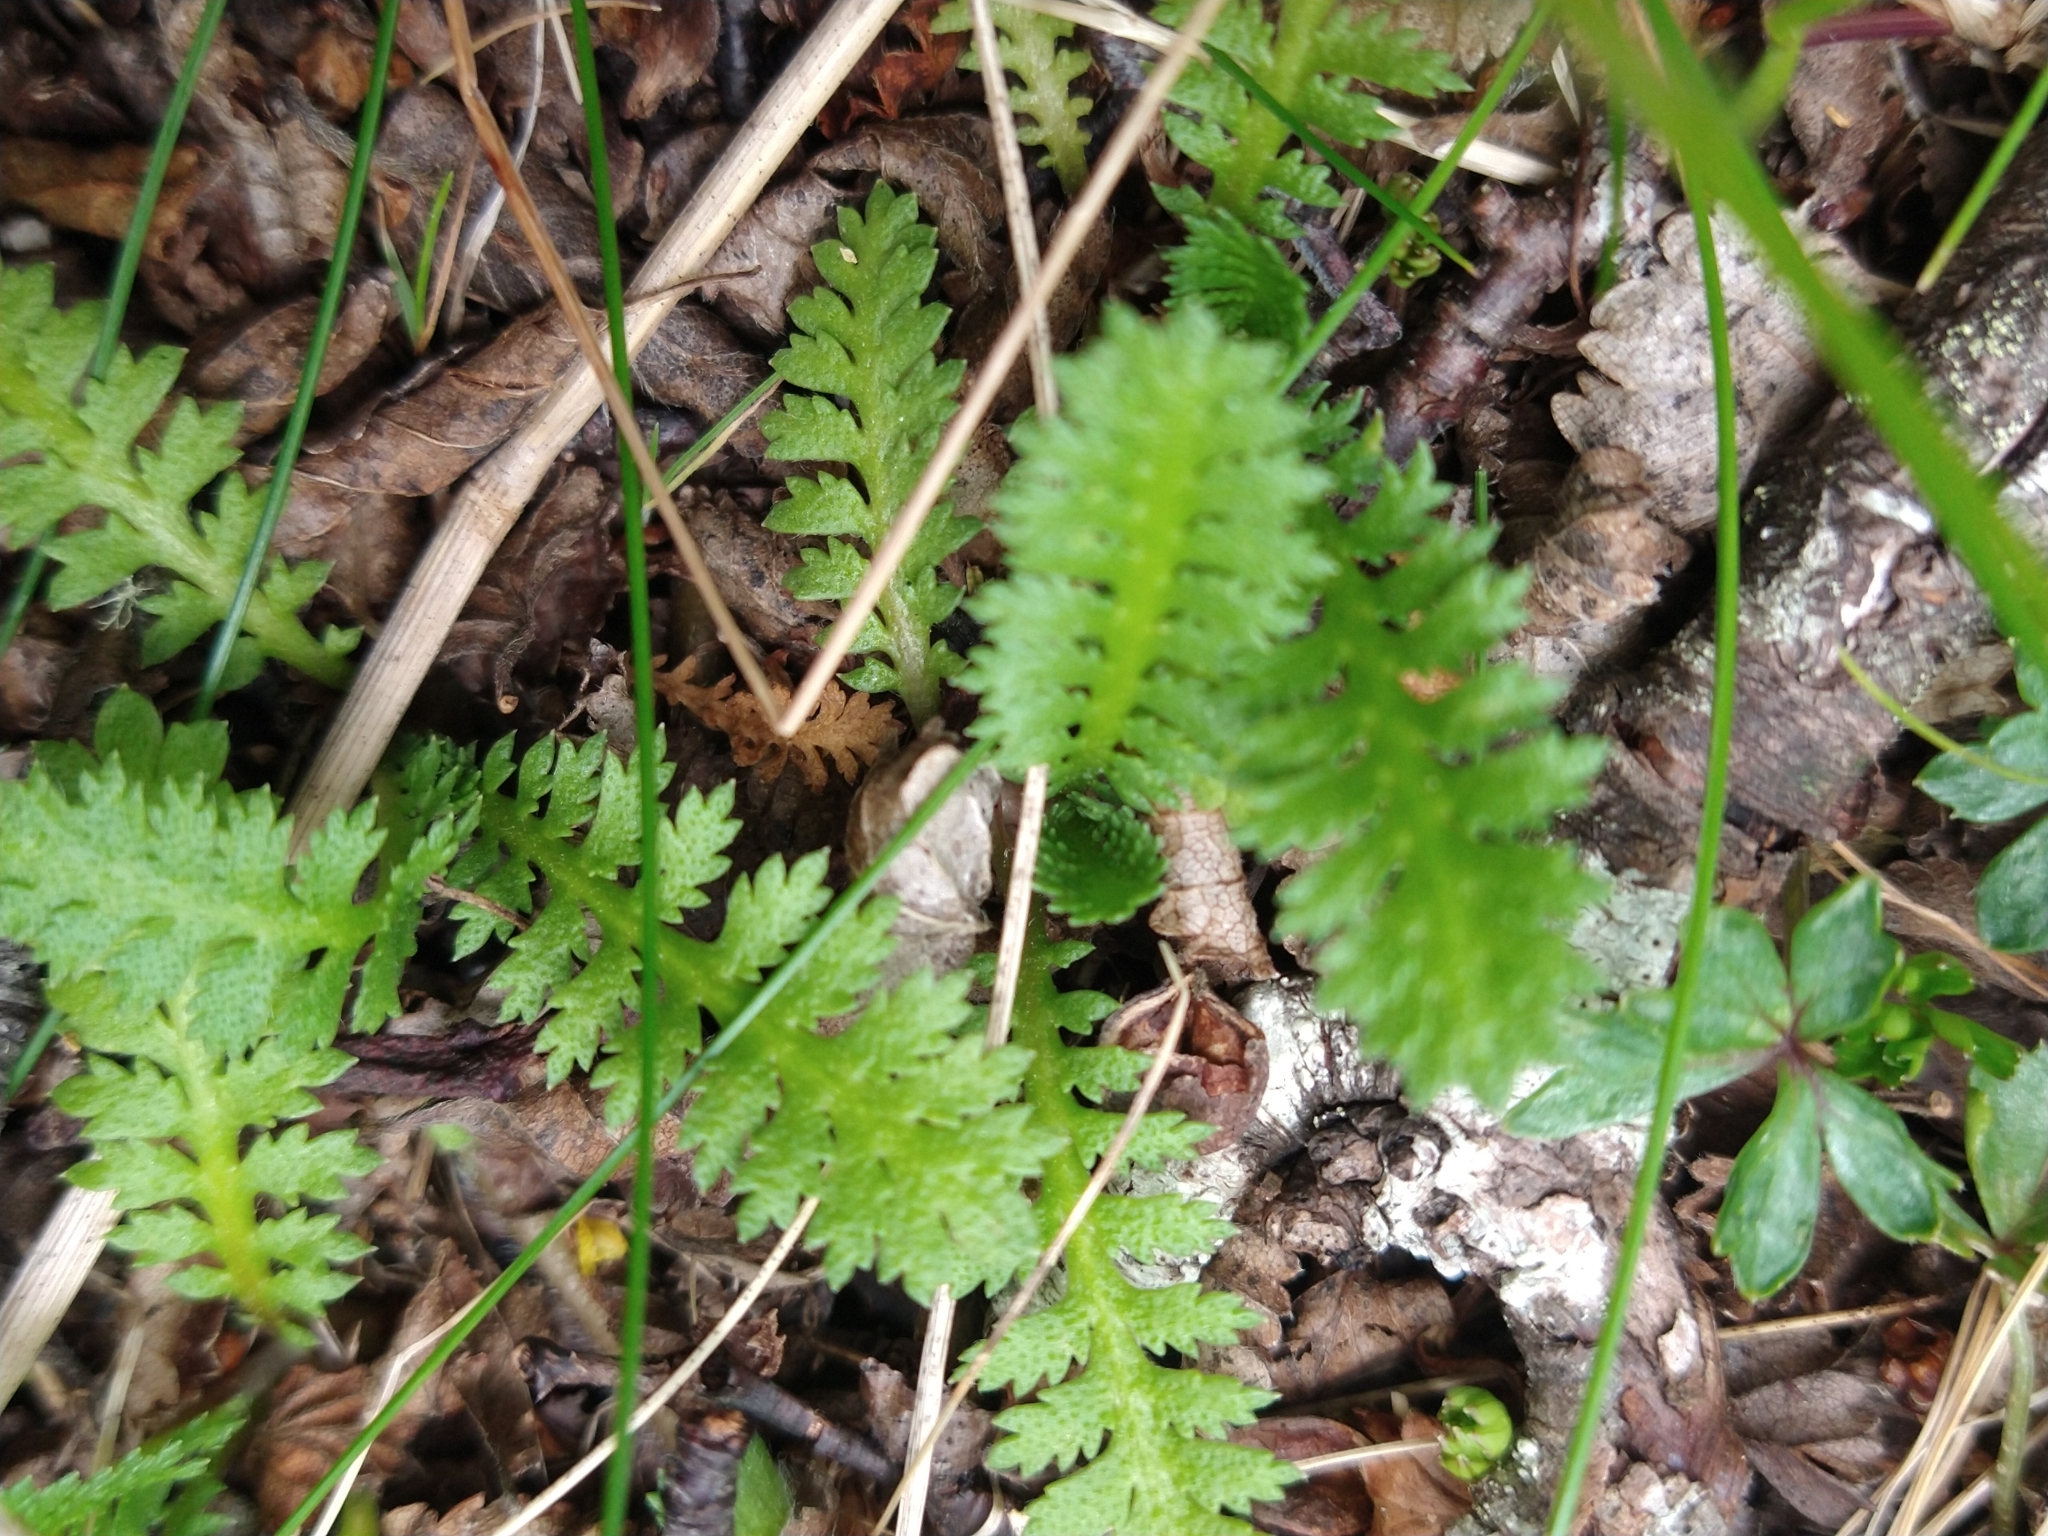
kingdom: Plantae
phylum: Tracheophyta
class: Magnoliopsida
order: Asterales
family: Asteraceae
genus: Leptinella
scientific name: Leptinella scariosa
